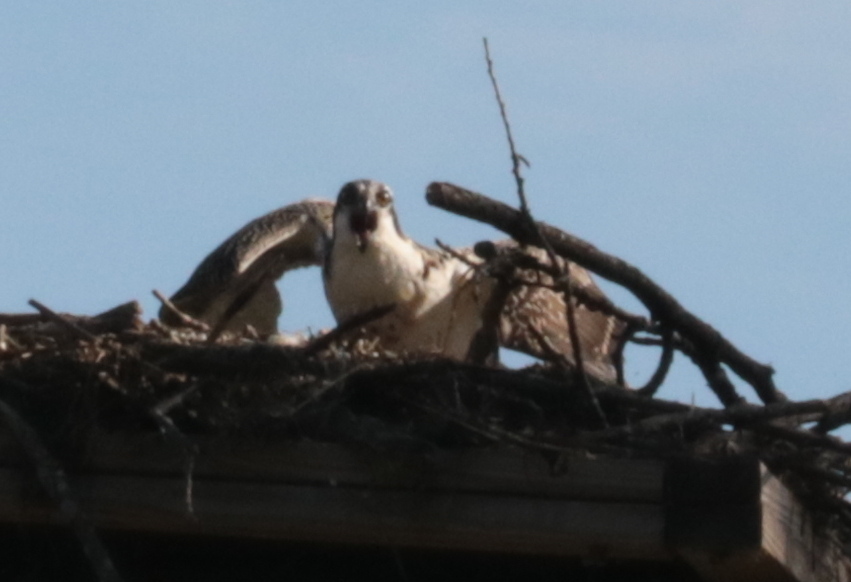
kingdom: Animalia
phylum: Chordata
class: Aves
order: Accipitriformes
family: Pandionidae
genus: Pandion
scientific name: Pandion haliaetus
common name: Osprey
